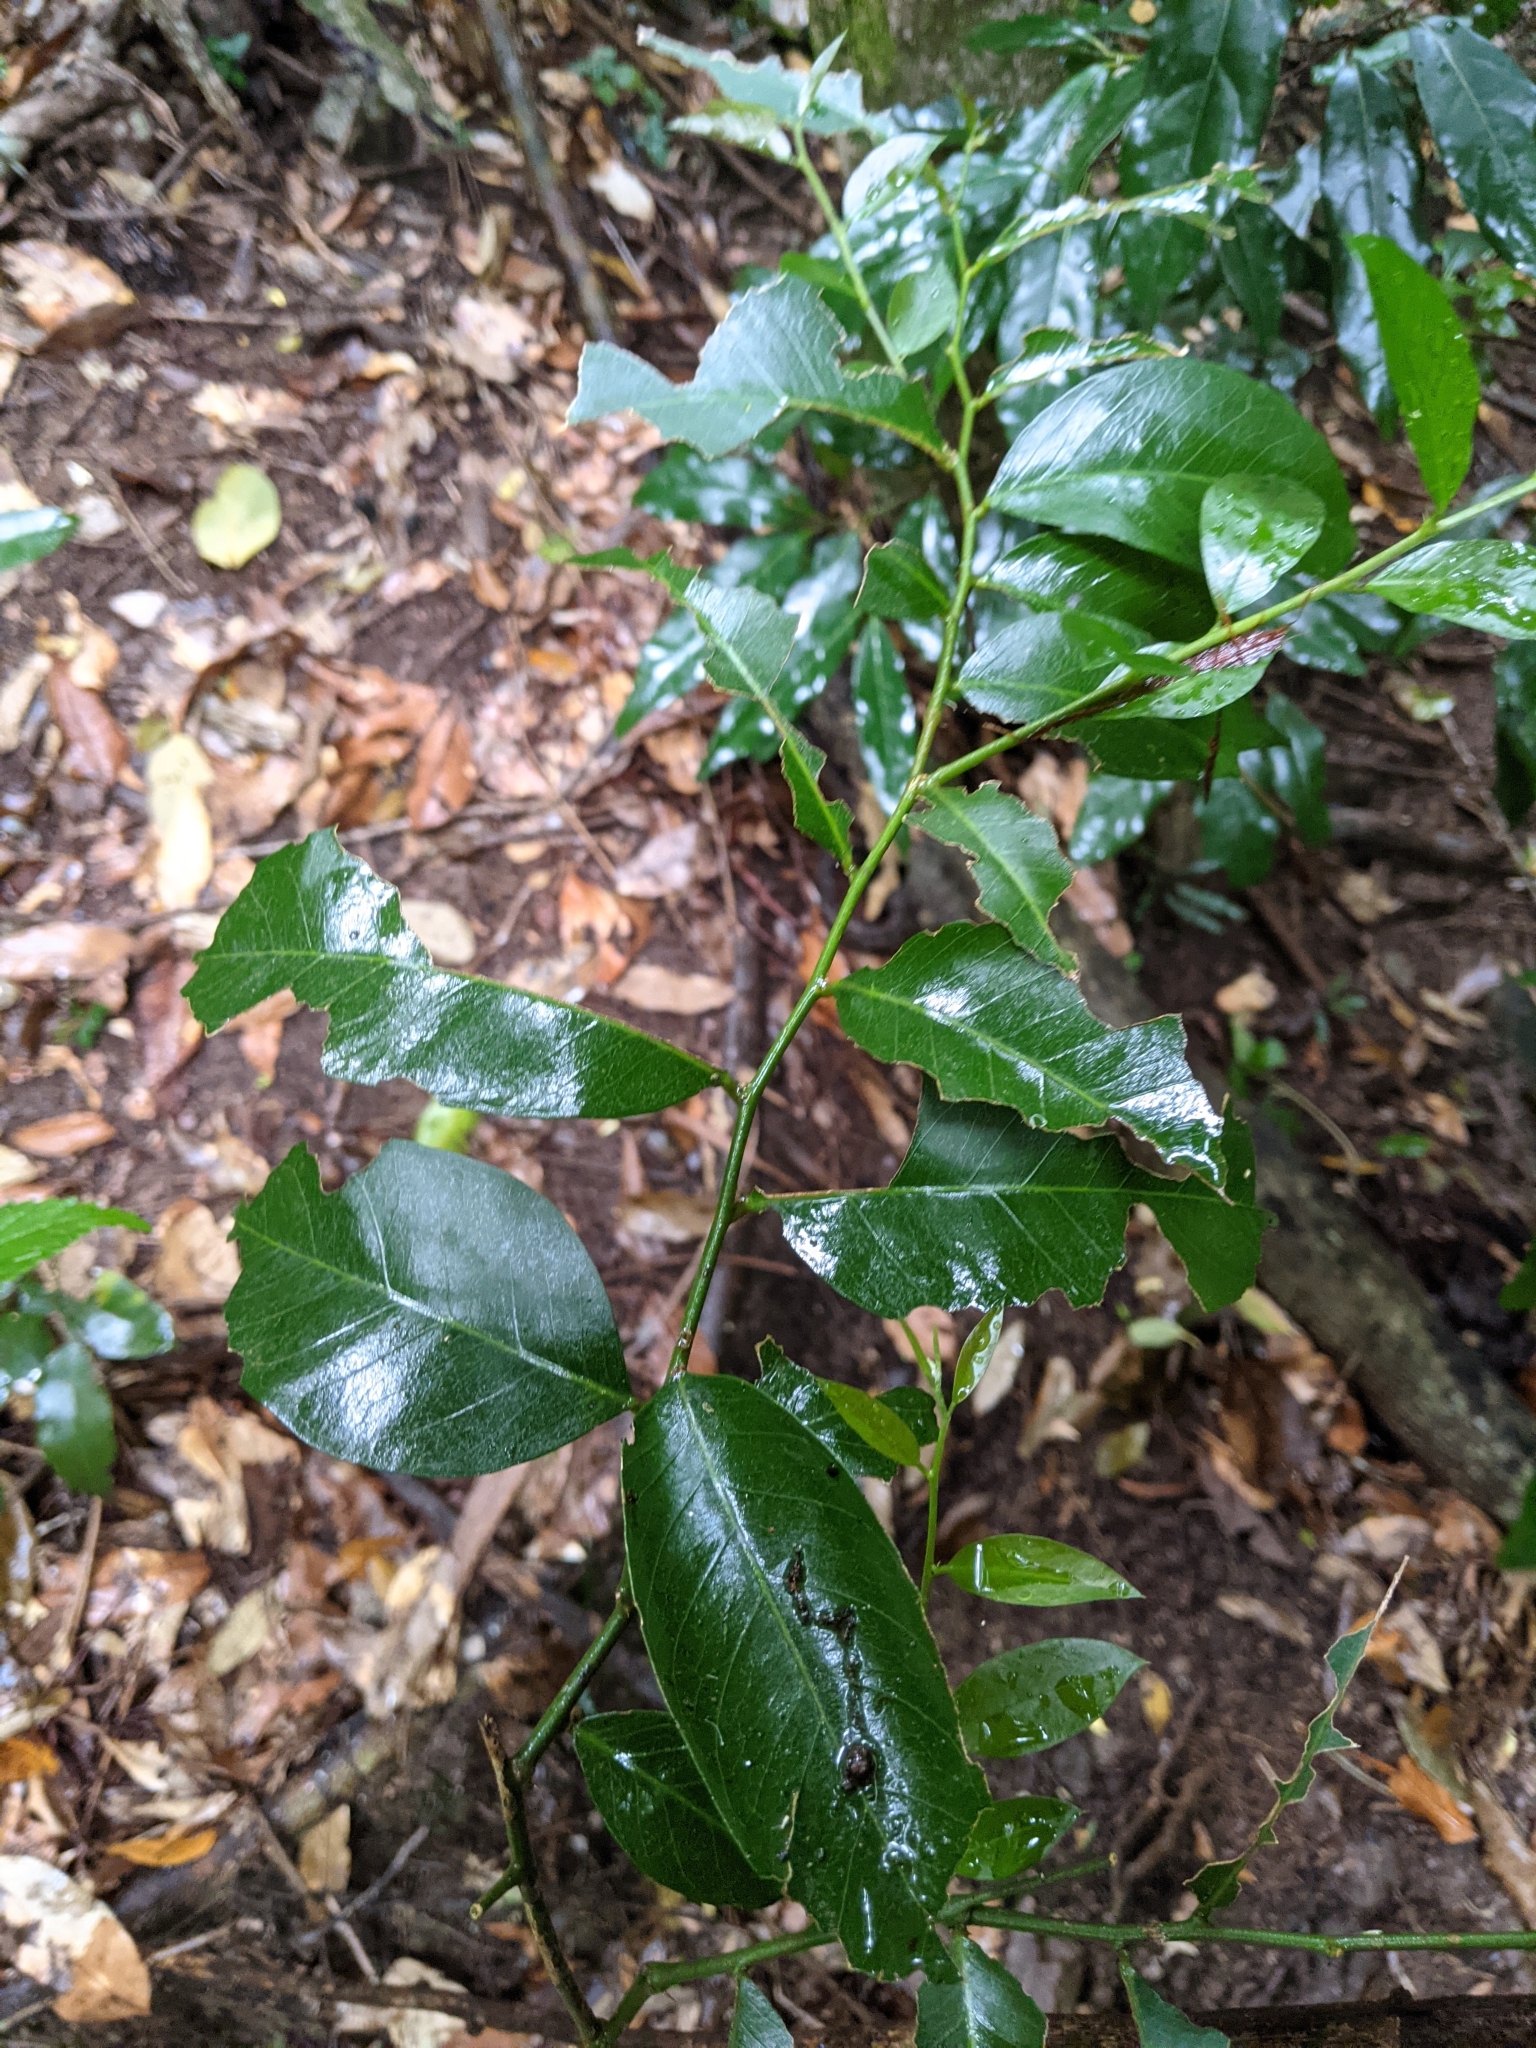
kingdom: Plantae
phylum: Tracheophyta
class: Magnoliopsida
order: Brassicales
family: Capparaceae
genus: Capparis
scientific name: Capparis arborea
